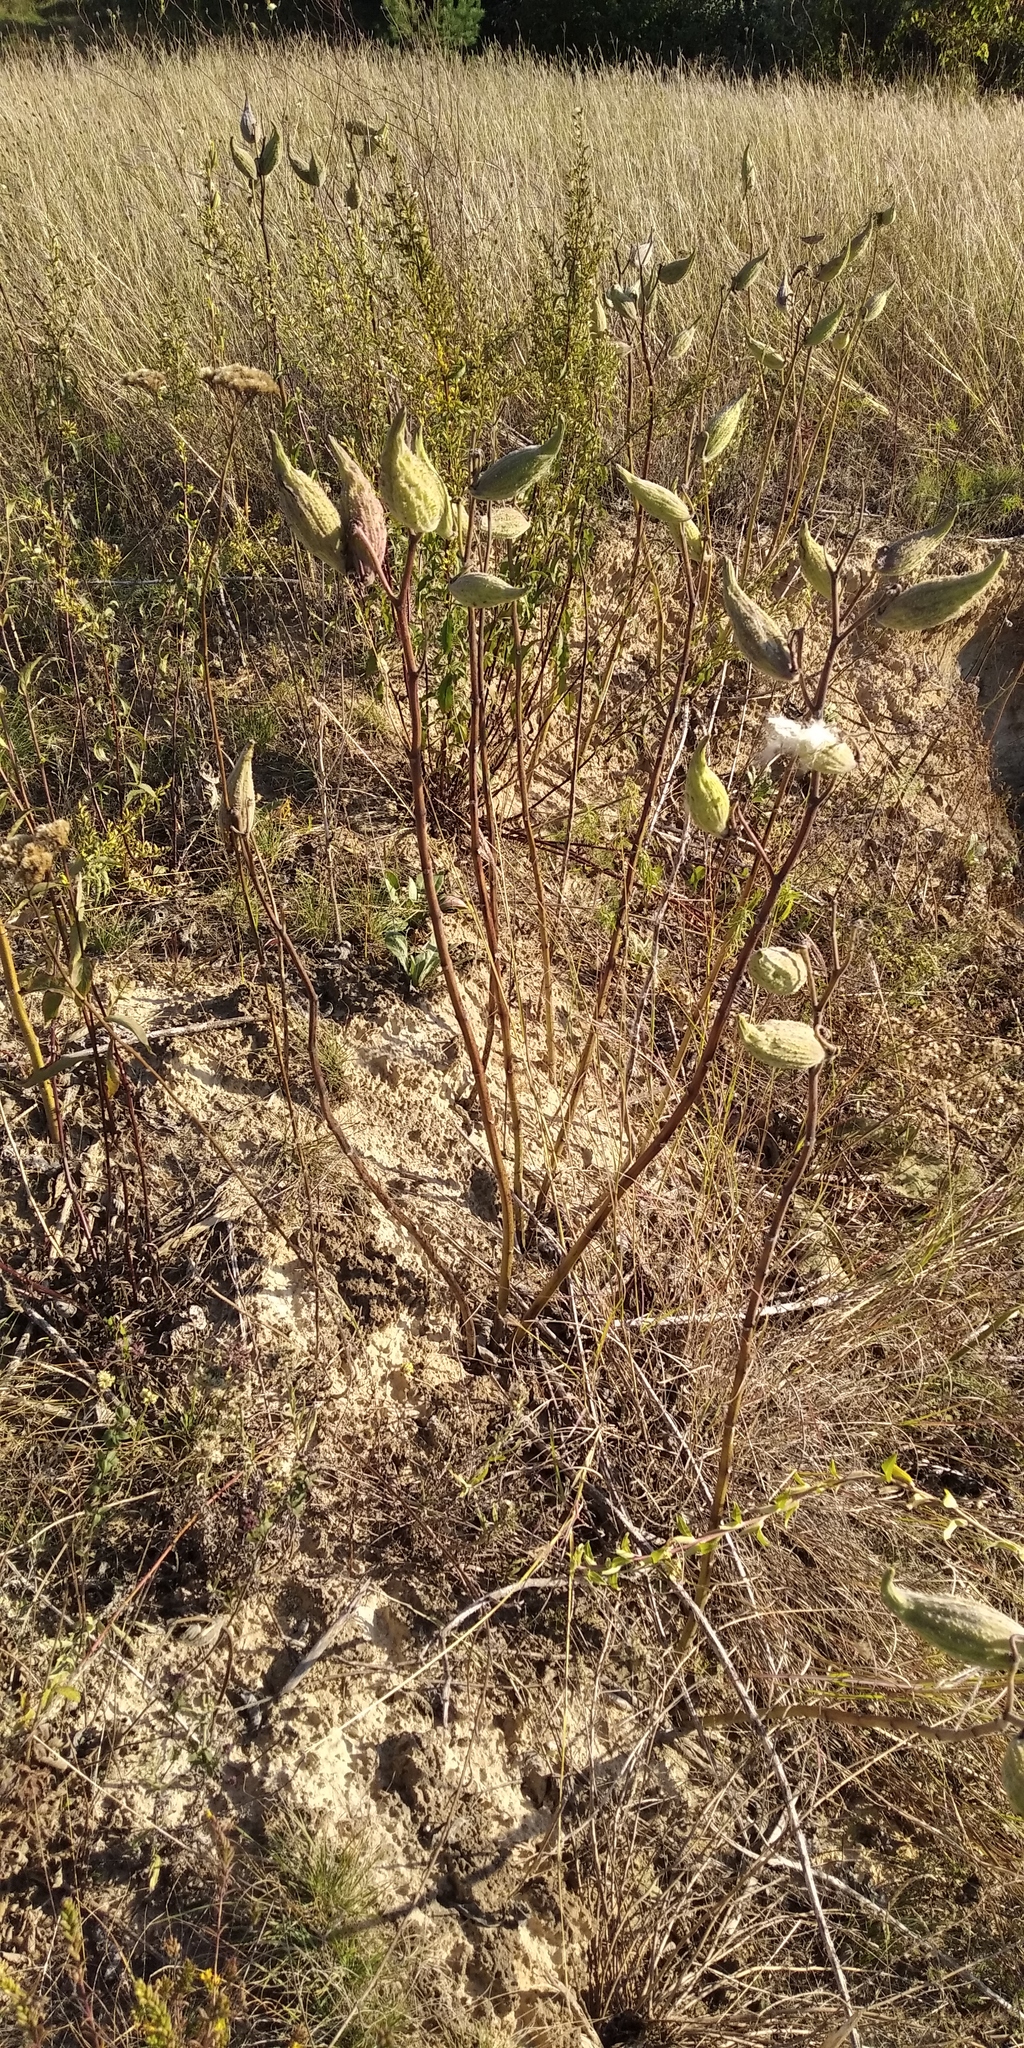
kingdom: Plantae
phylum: Tracheophyta
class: Magnoliopsida
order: Gentianales
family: Apocynaceae
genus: Asclepias
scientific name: Asclepias syriaca
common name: Common milkweed
